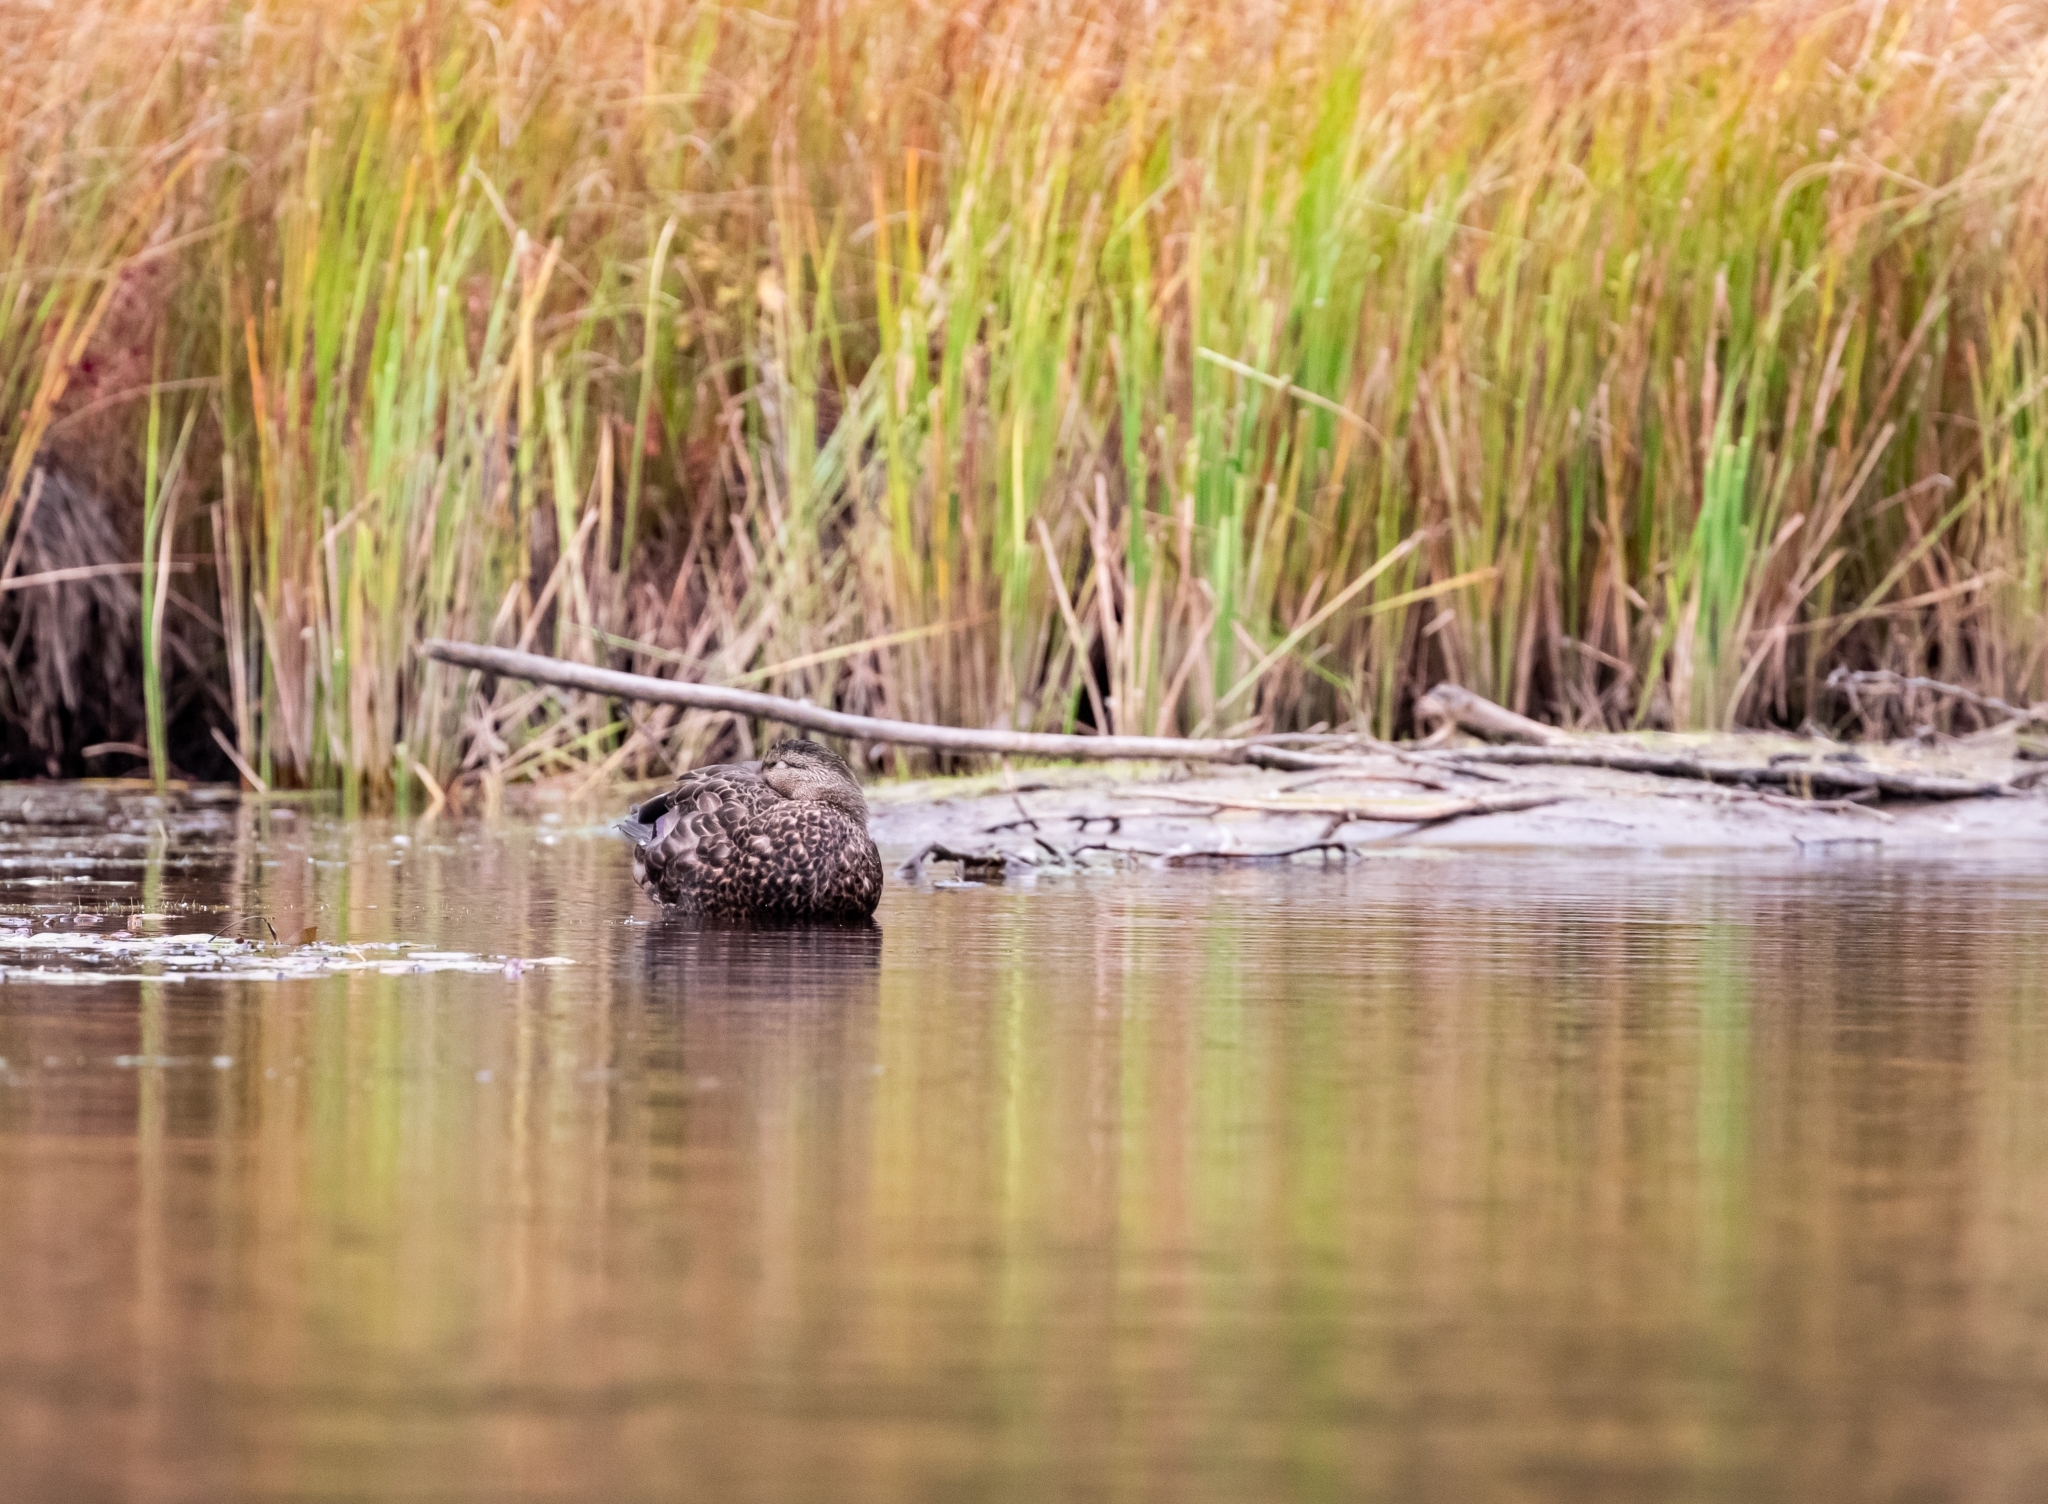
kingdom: Animalia
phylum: Chordata
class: Aves
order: Anseriformes
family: Anatidae
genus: Anas
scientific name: Anas platyrhynchos
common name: Mallard
